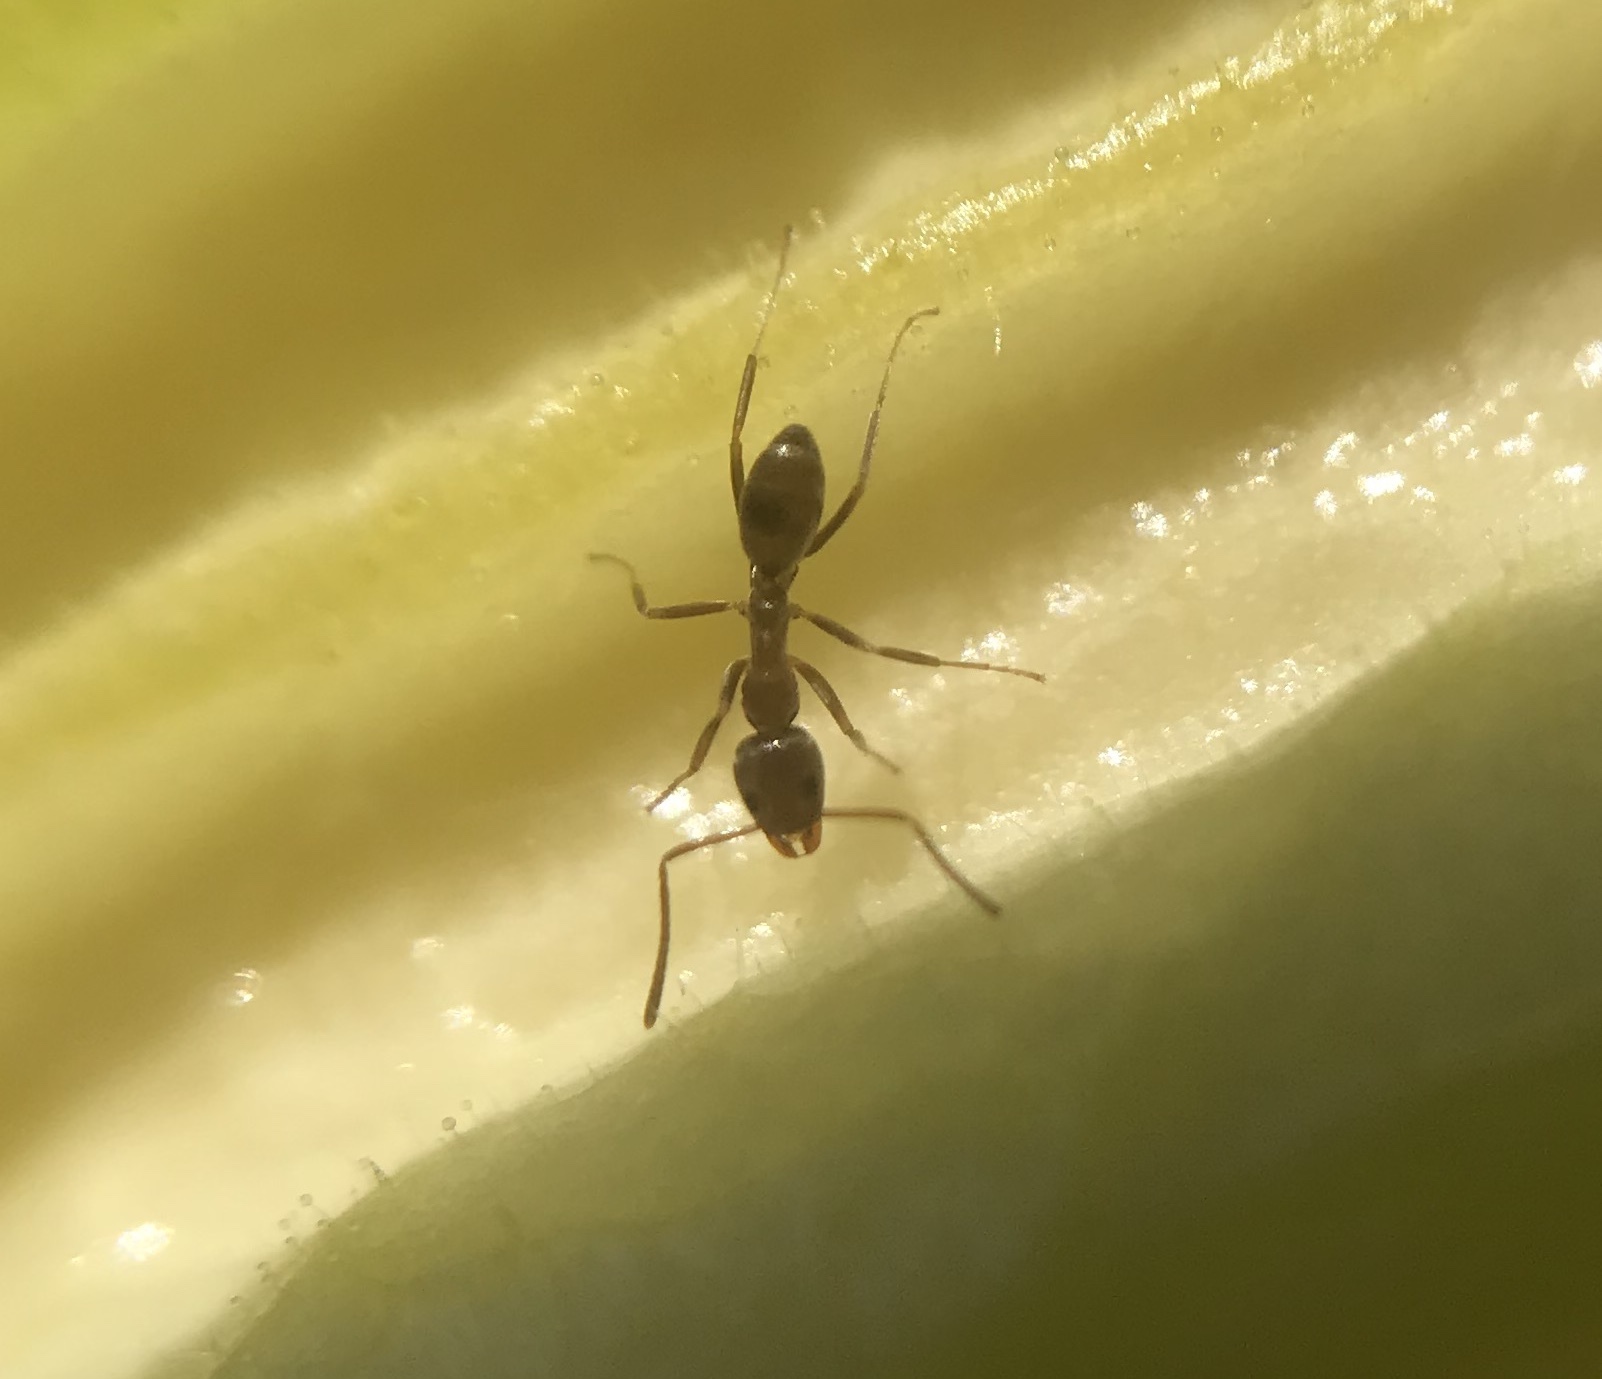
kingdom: Animalia
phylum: Arthropoda
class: Insecta
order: Hymenoptera
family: Formicidae
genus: Linepithema
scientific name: Linepithema humile
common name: Argentine ant
